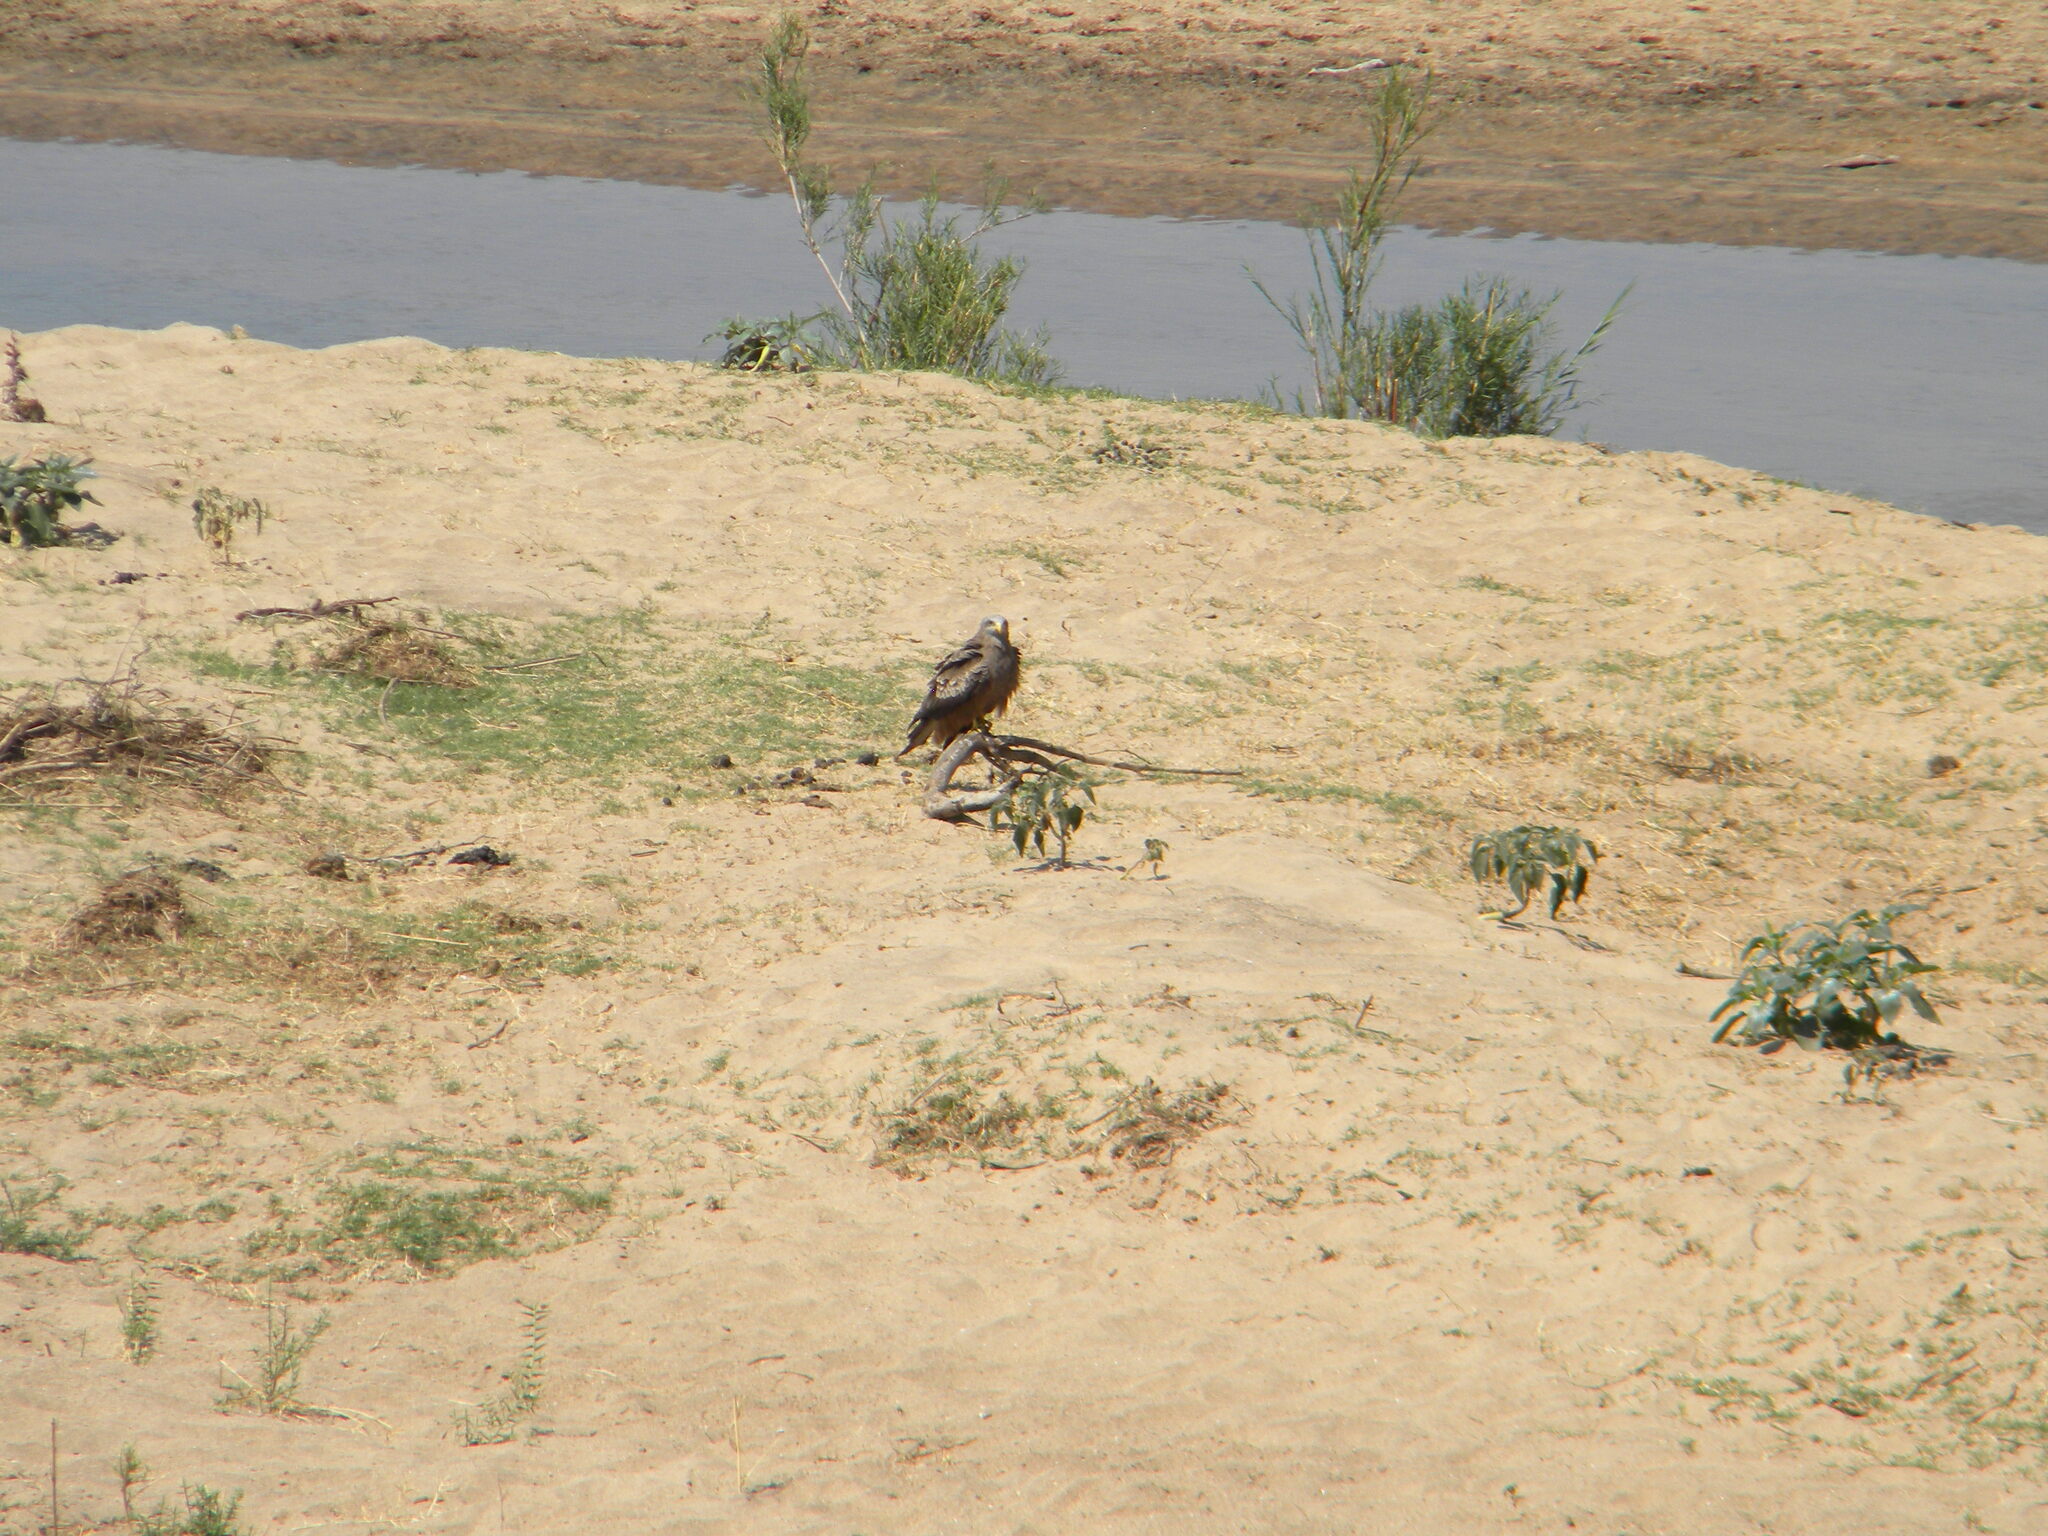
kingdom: Animalia
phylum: Chordata
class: Aves
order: Accipitriformes
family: Accipitridae
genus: Milvus
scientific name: Milvus migrans
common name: Black kite
